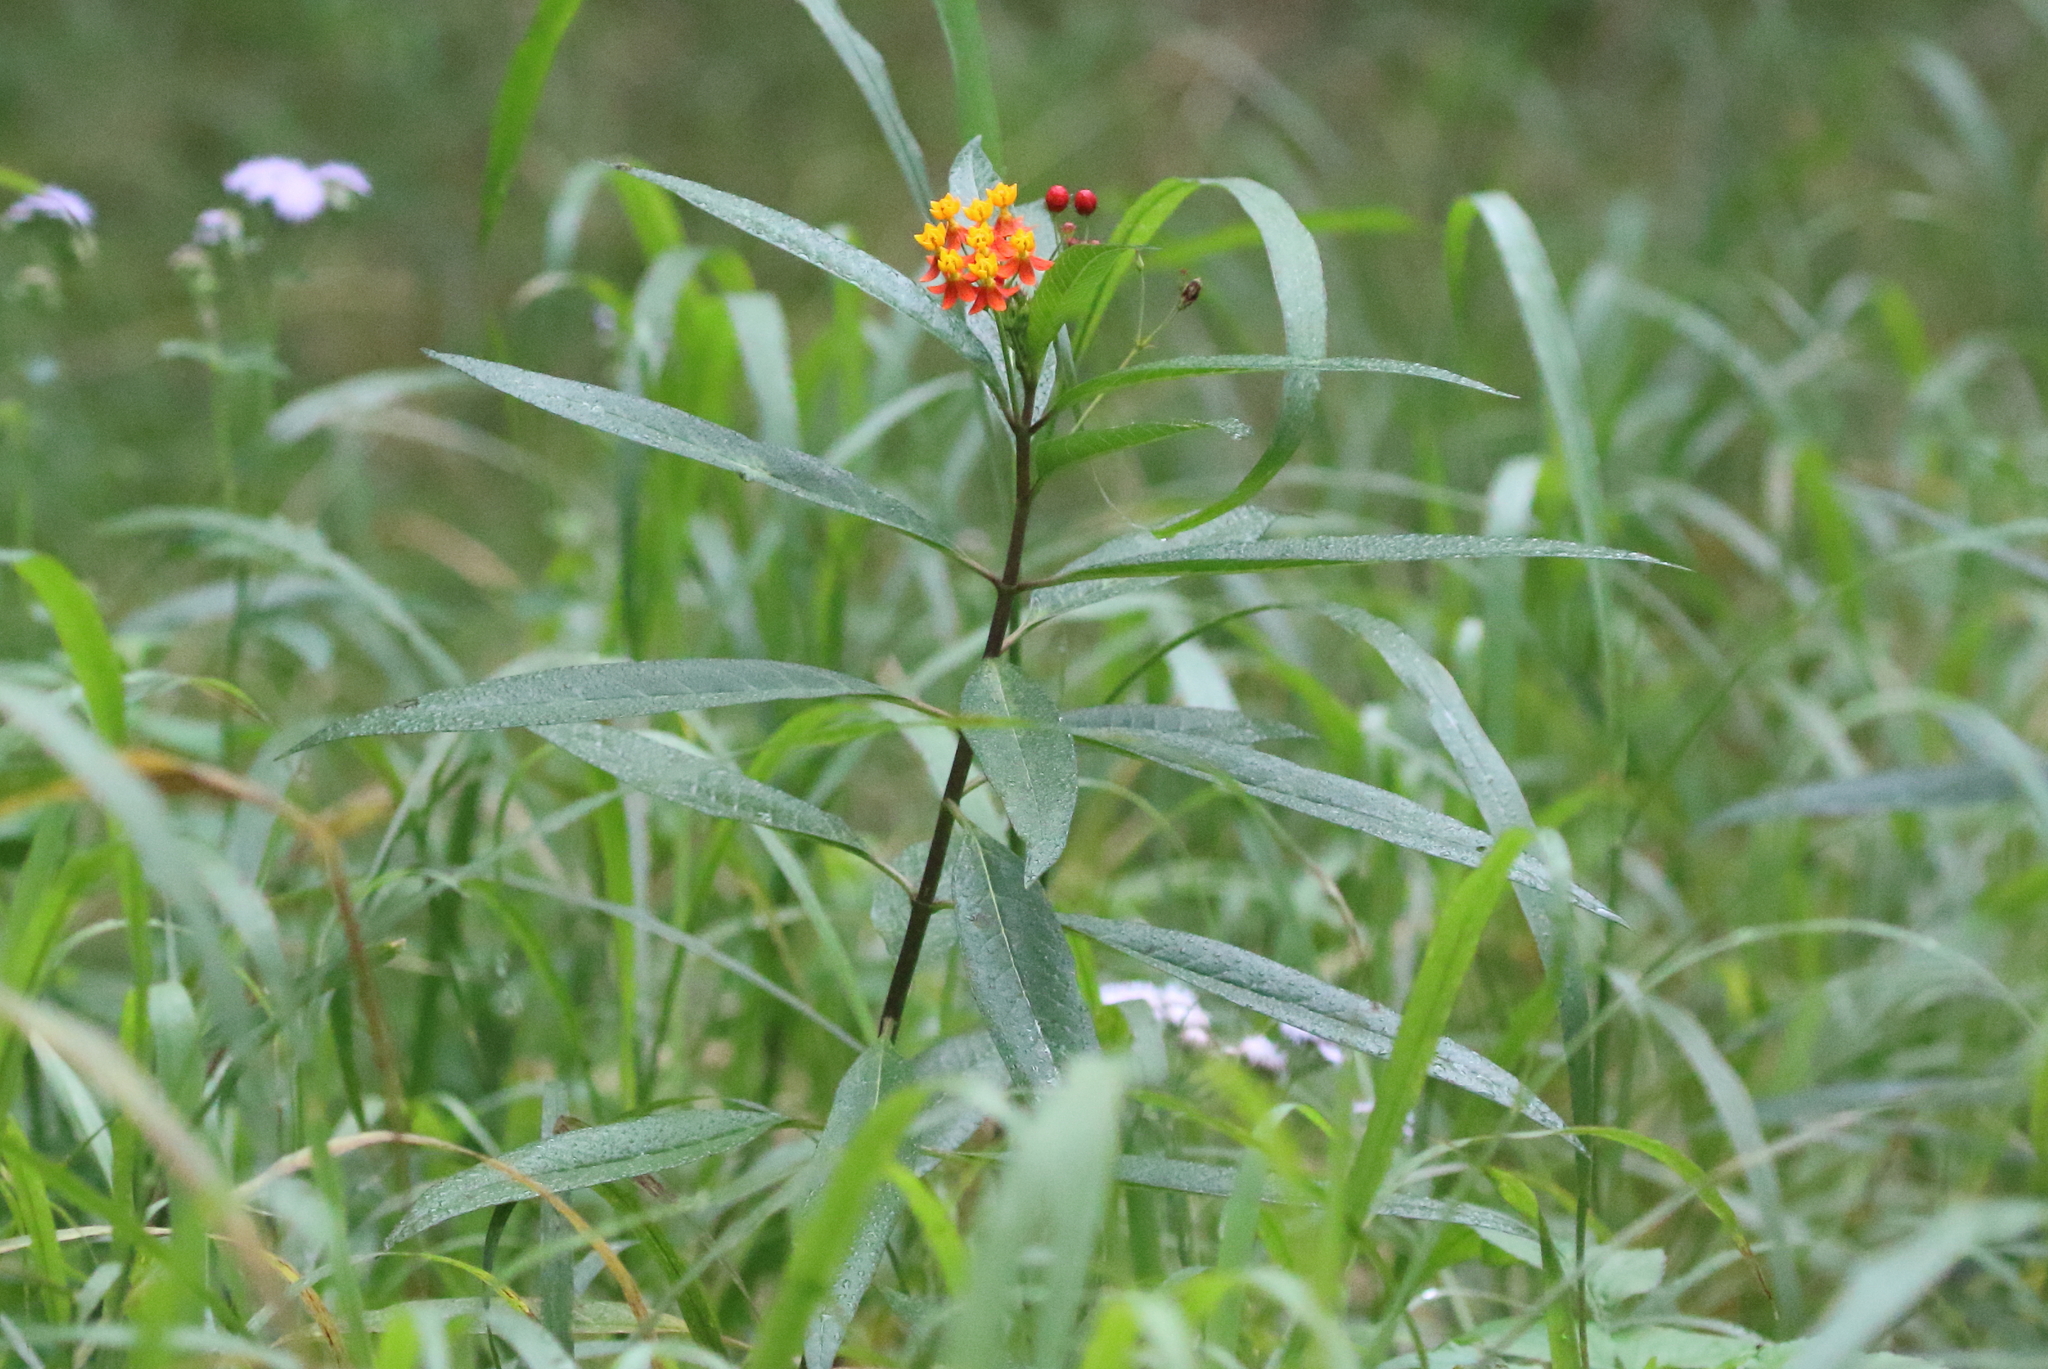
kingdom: Plantae
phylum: Tracheophyta
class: Magnoliopsida
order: Gentianales
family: Apocynaceae
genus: Asclepias
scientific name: Asclepias curassavica
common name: Bloodflower
